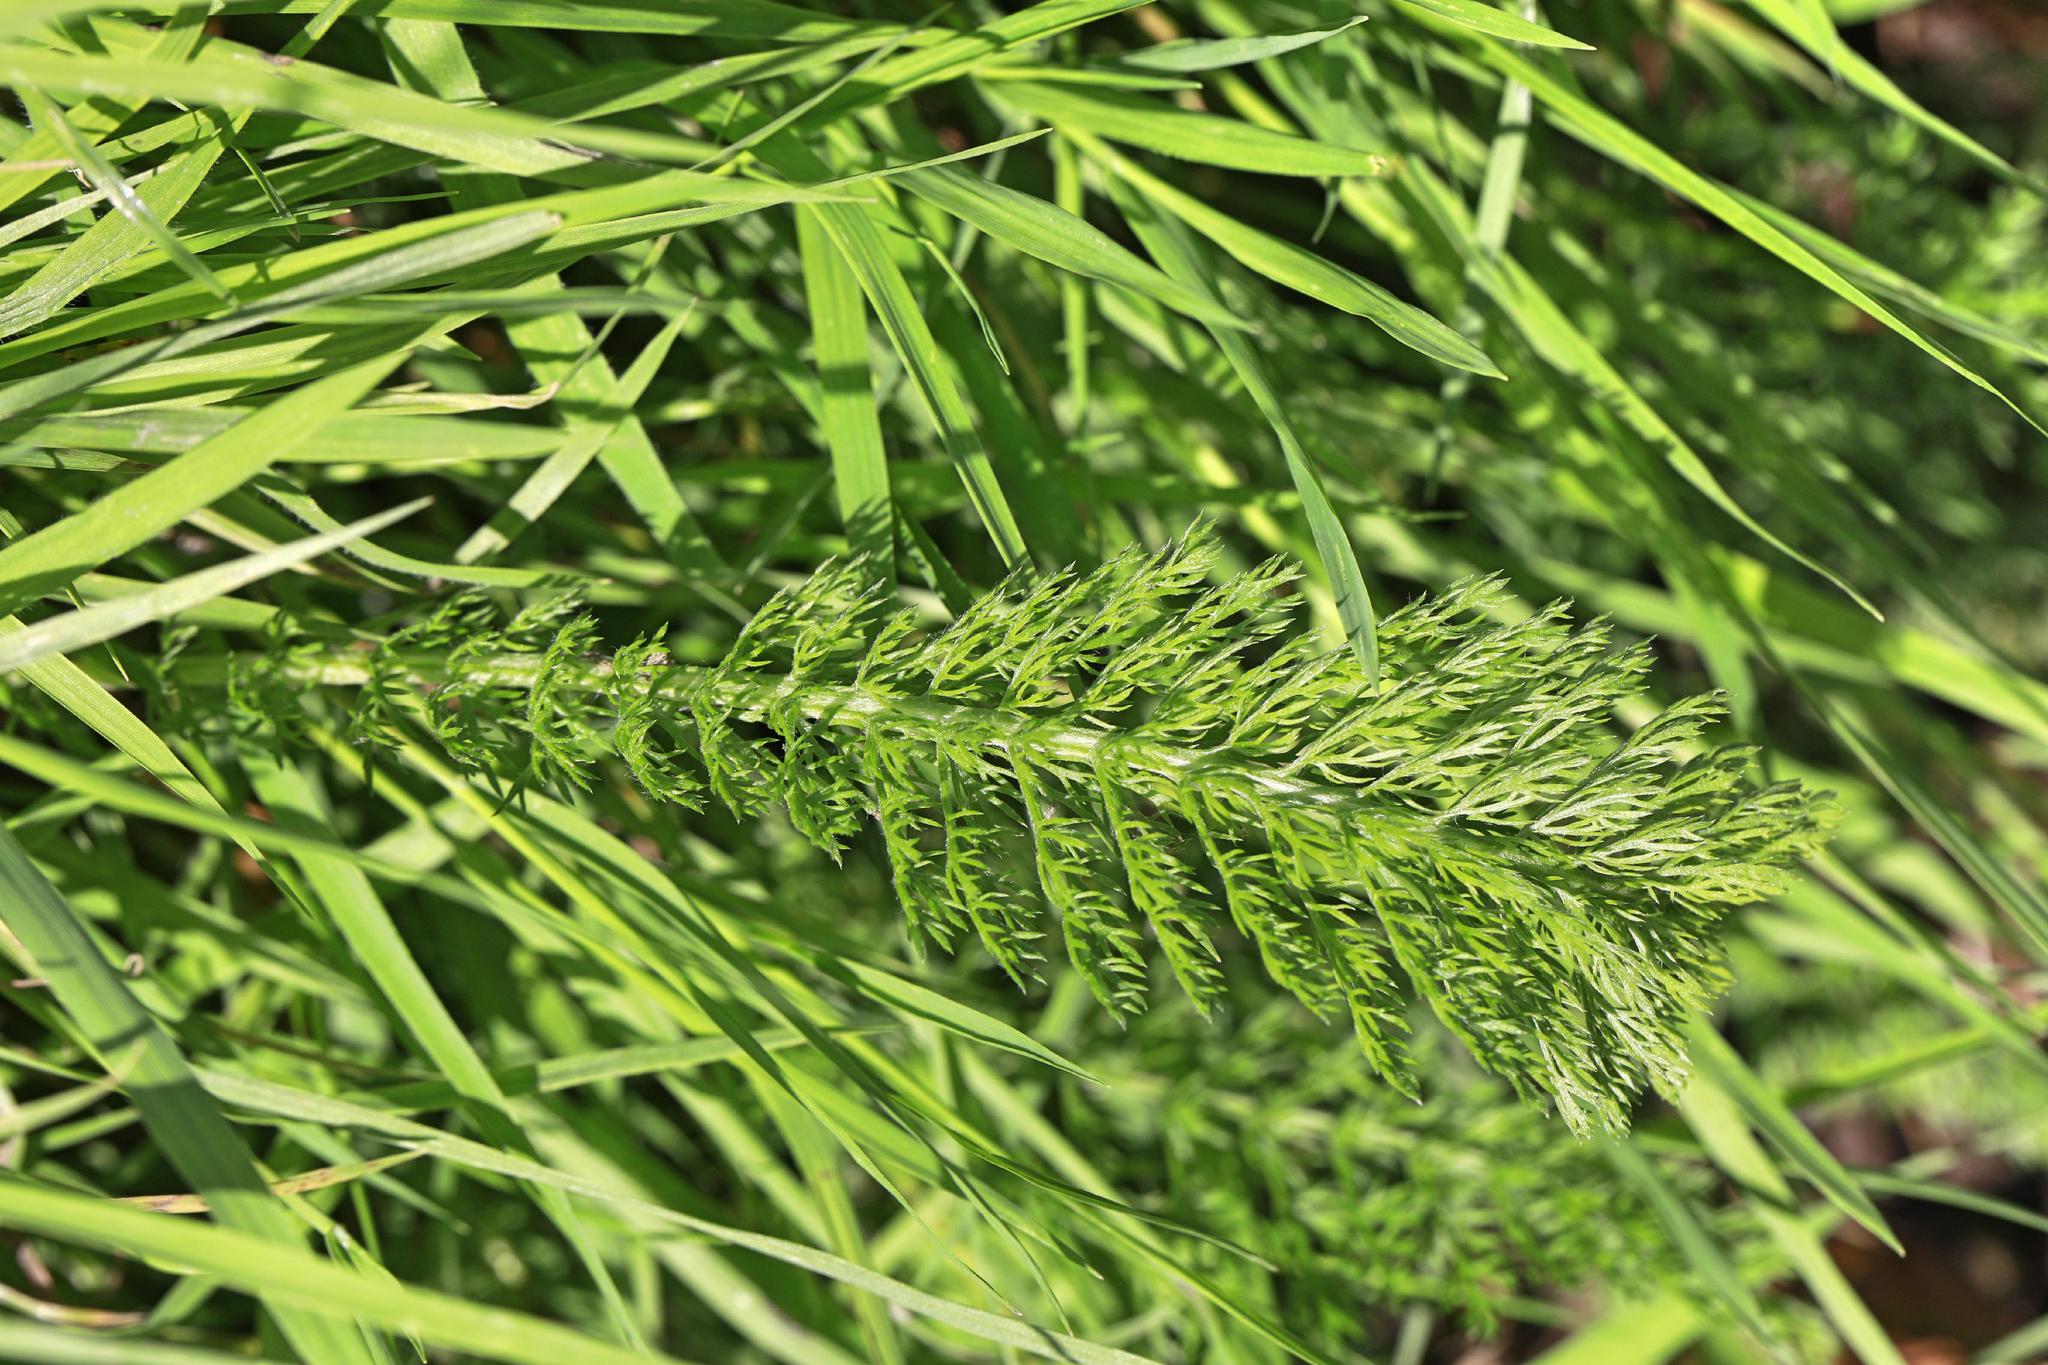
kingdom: Plantae
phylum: Tracheophyta
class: Magnoliopsida
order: Asterales
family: Asteraceae
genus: Achillea
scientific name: Achillea millefolium
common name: Yarrow
